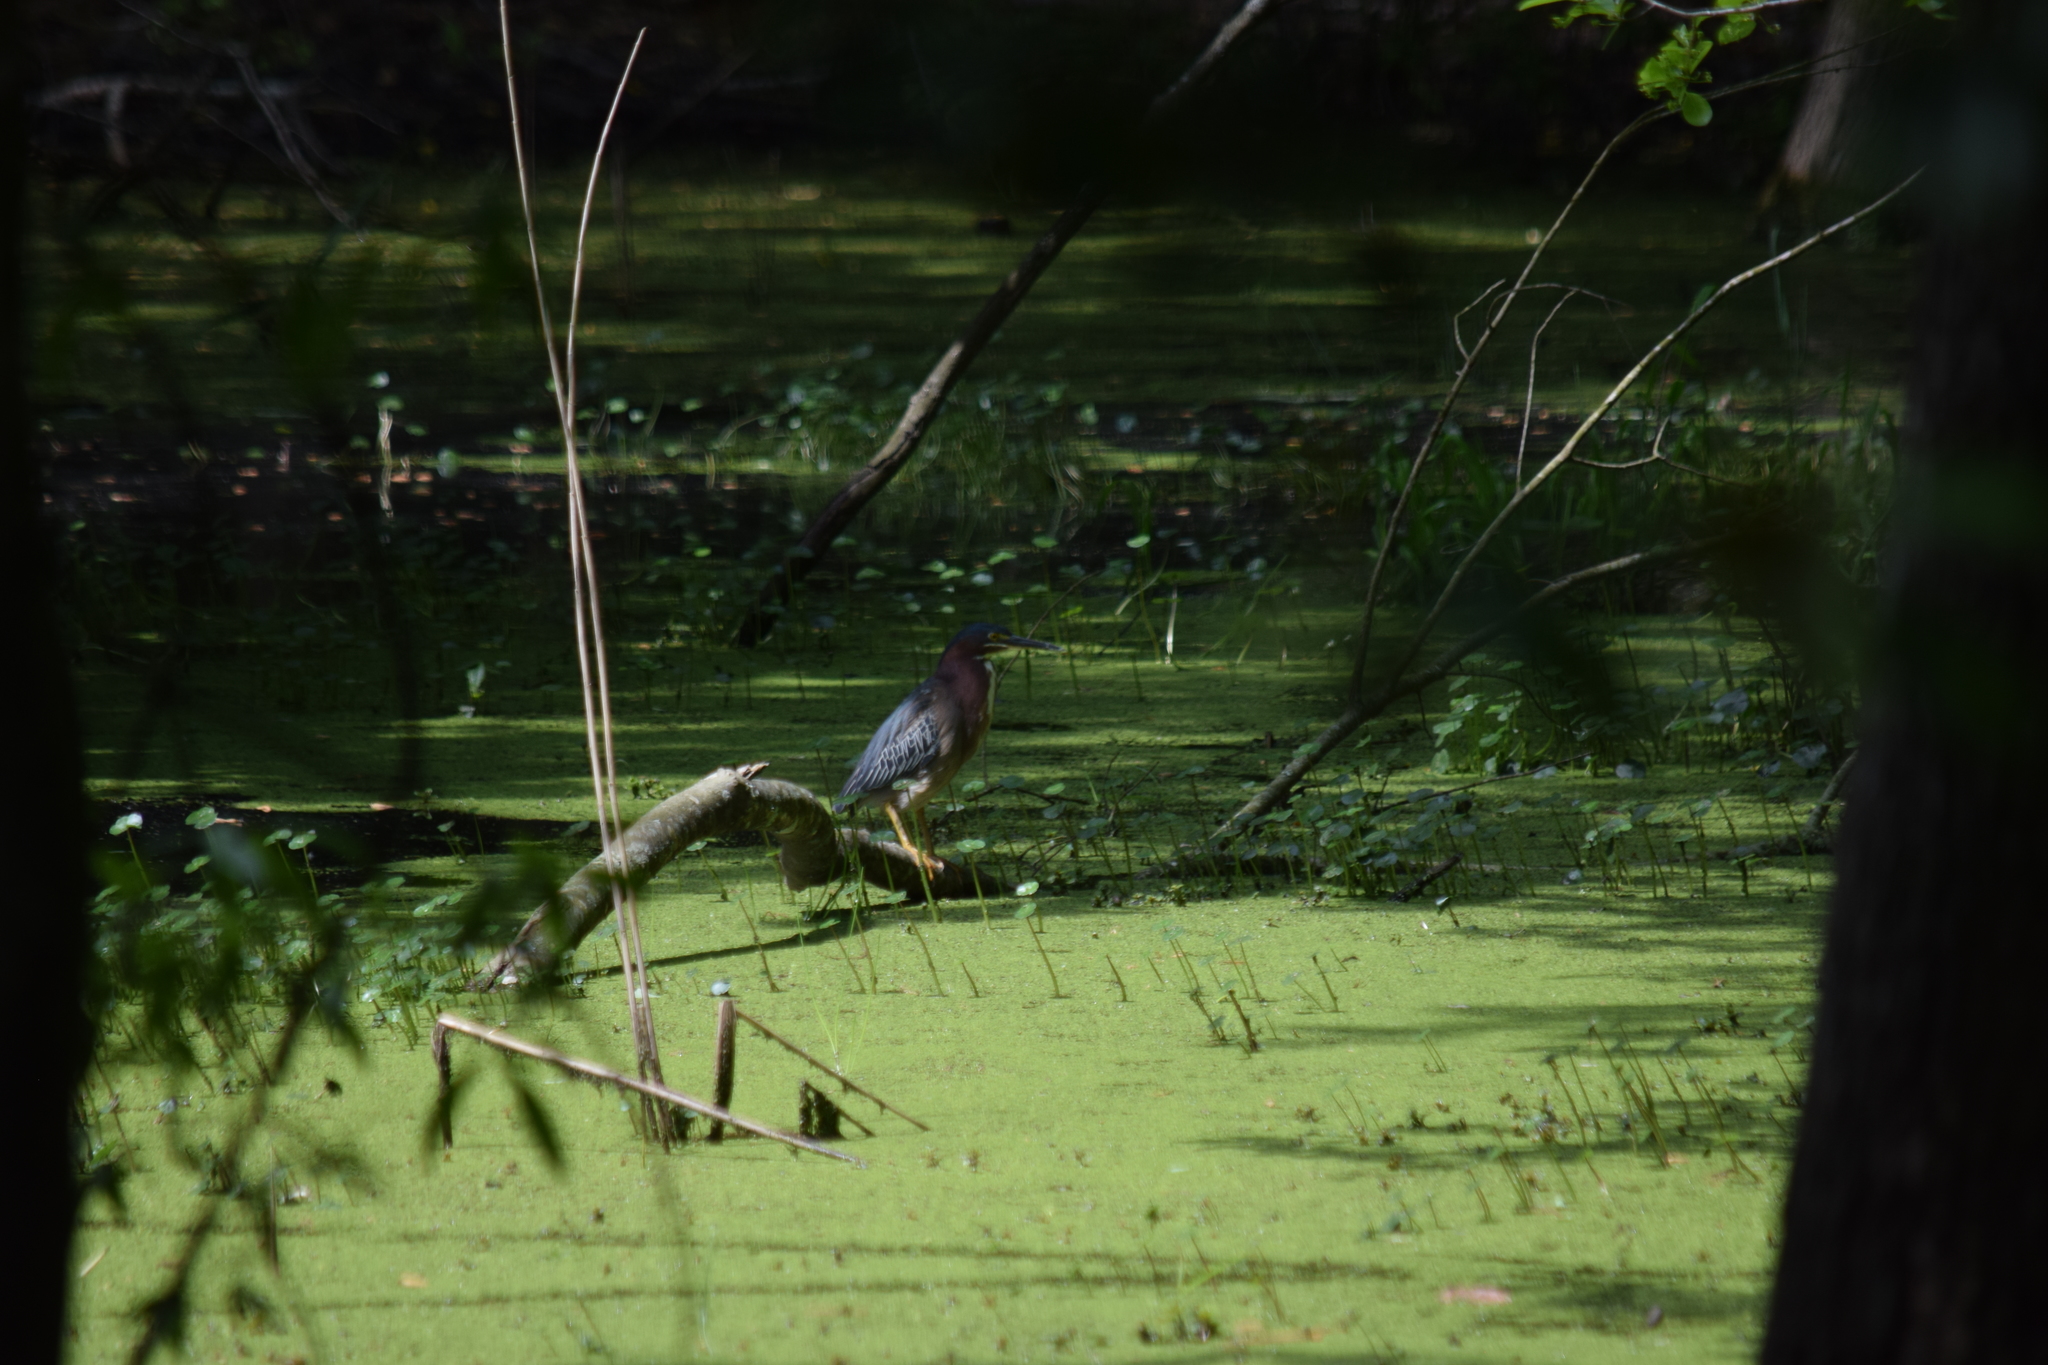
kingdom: Animalia
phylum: Chordata
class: Aves
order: Pelecaniformes
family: Ardeidae
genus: Butorides
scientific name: Butorides virescens
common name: Green heron
